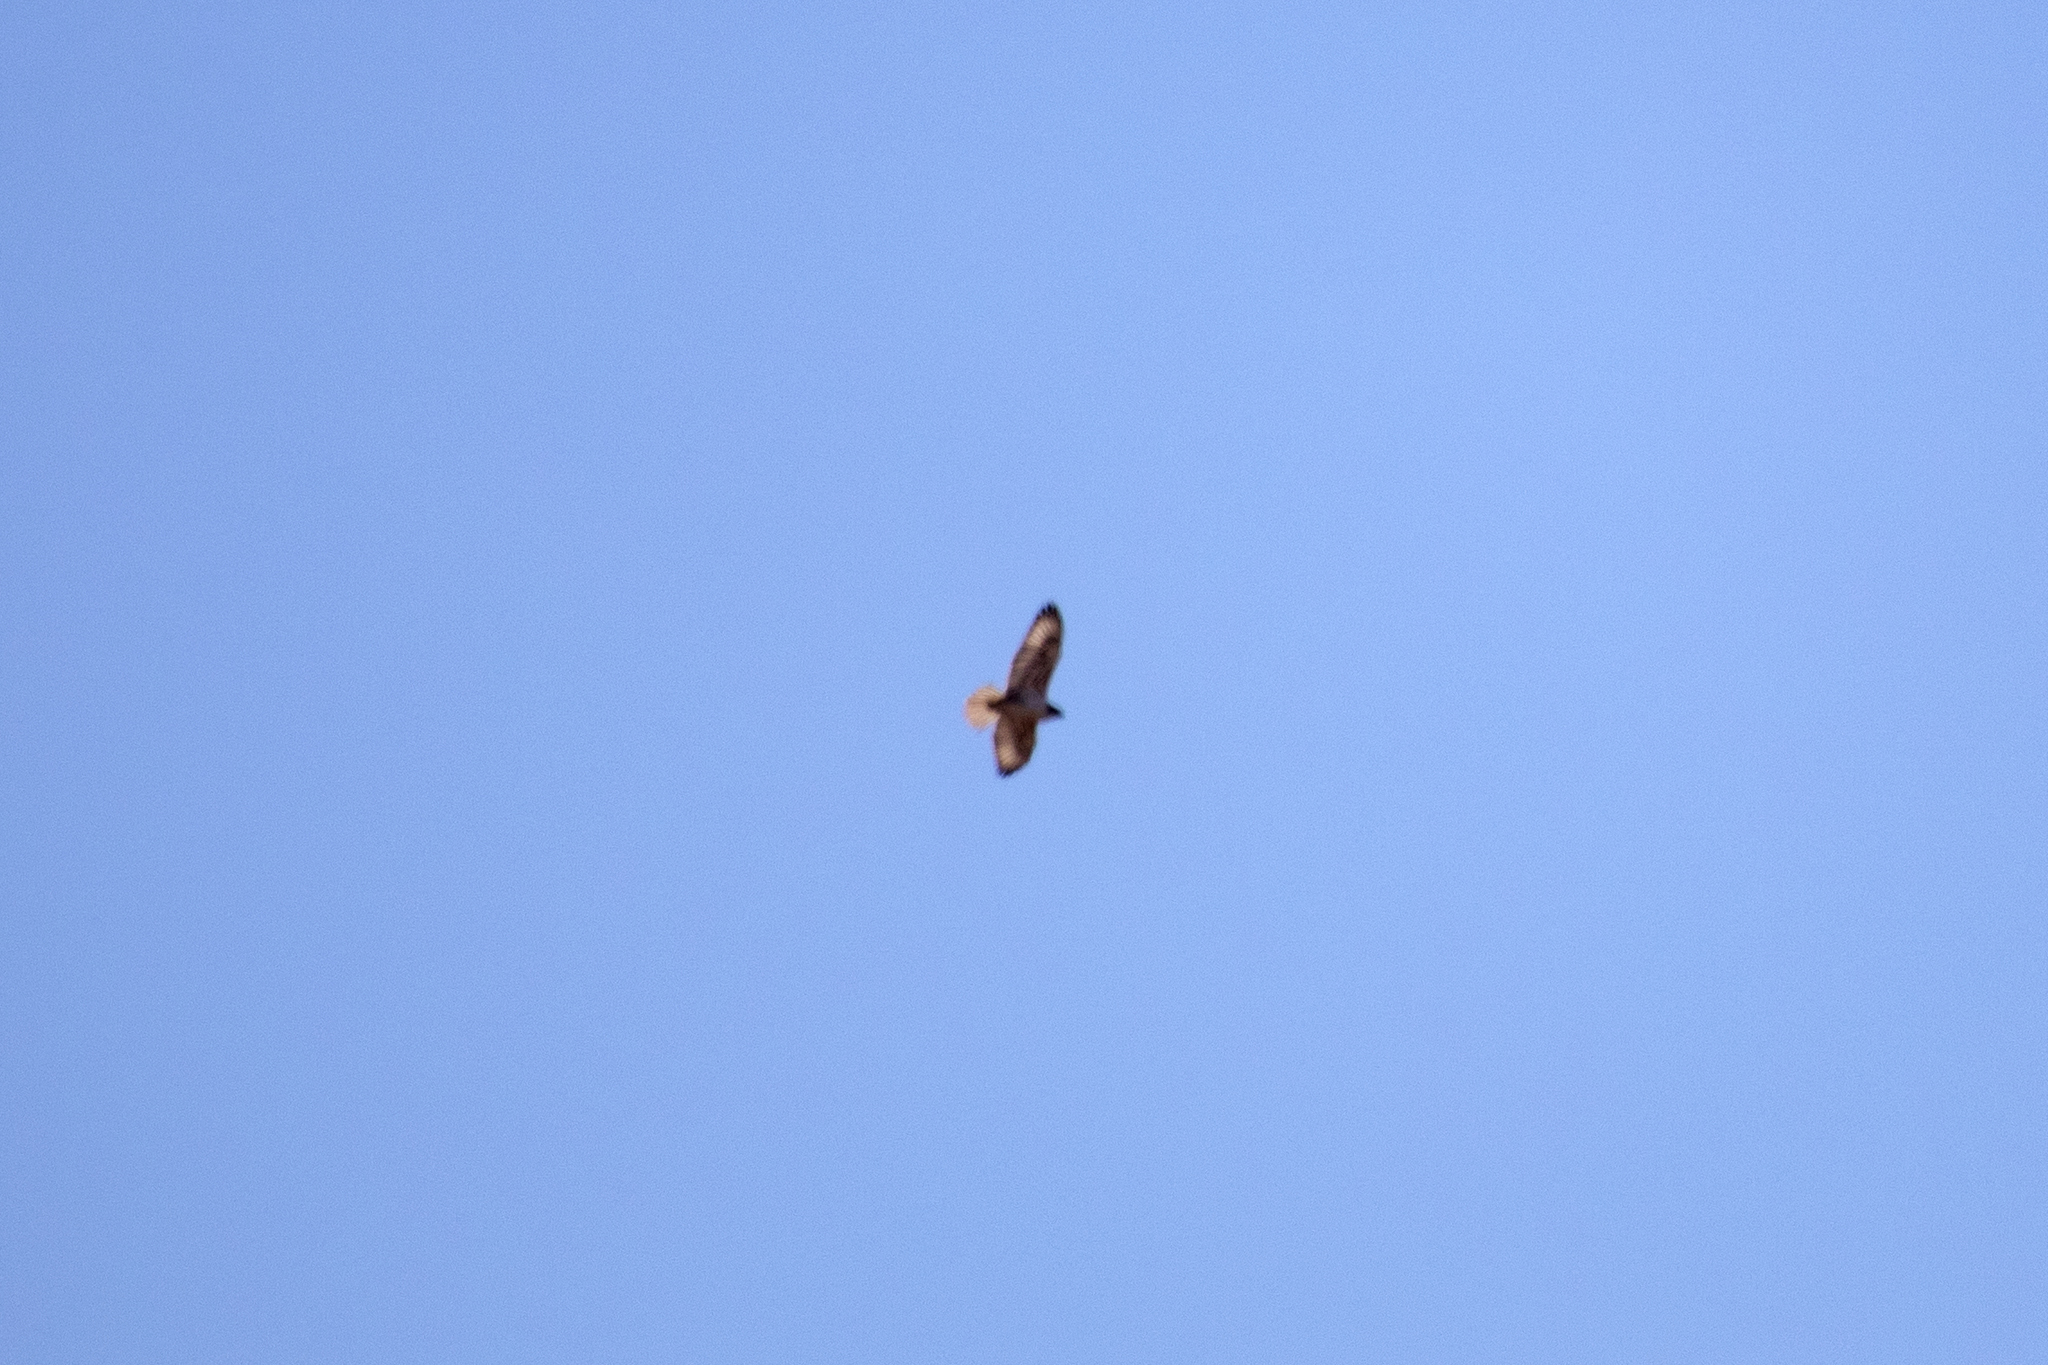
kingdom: Animalia
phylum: Chordata
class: Aves
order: Accipitriformes
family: Accipitridae
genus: Buteo
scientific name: Buteo regalis
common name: Ferruginous hawk
